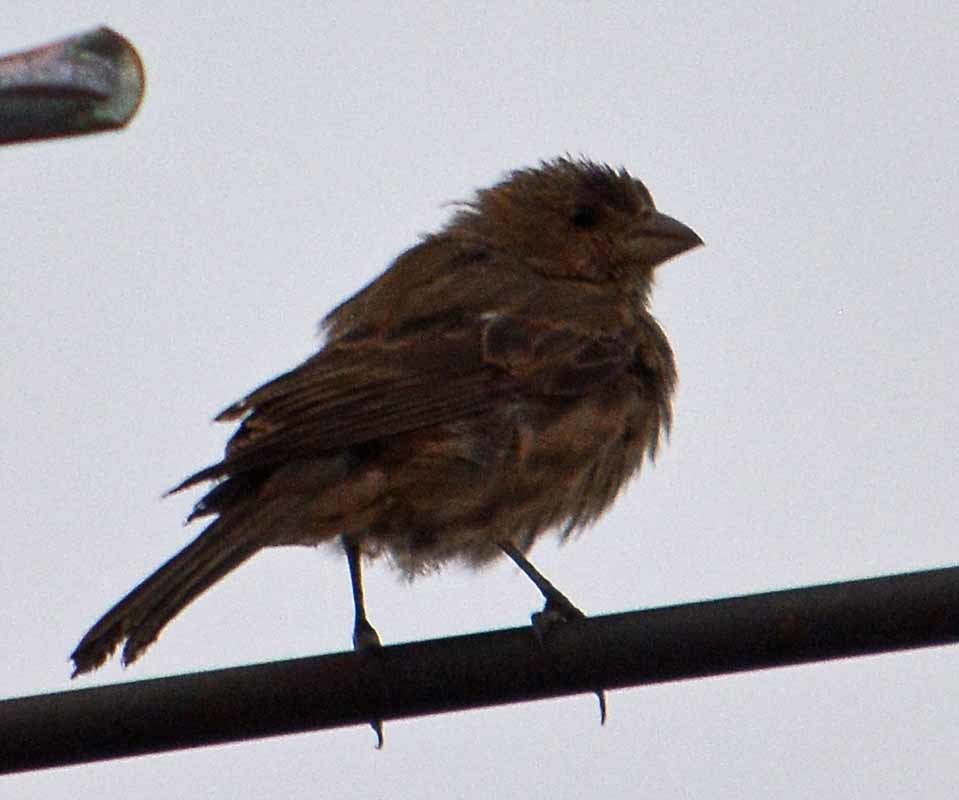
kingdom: Animalia
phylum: Chordata
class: Aves
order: Passeriformes
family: Fringillidae
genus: Haemorhous
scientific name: Haemorhous mexicanus
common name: House finch
